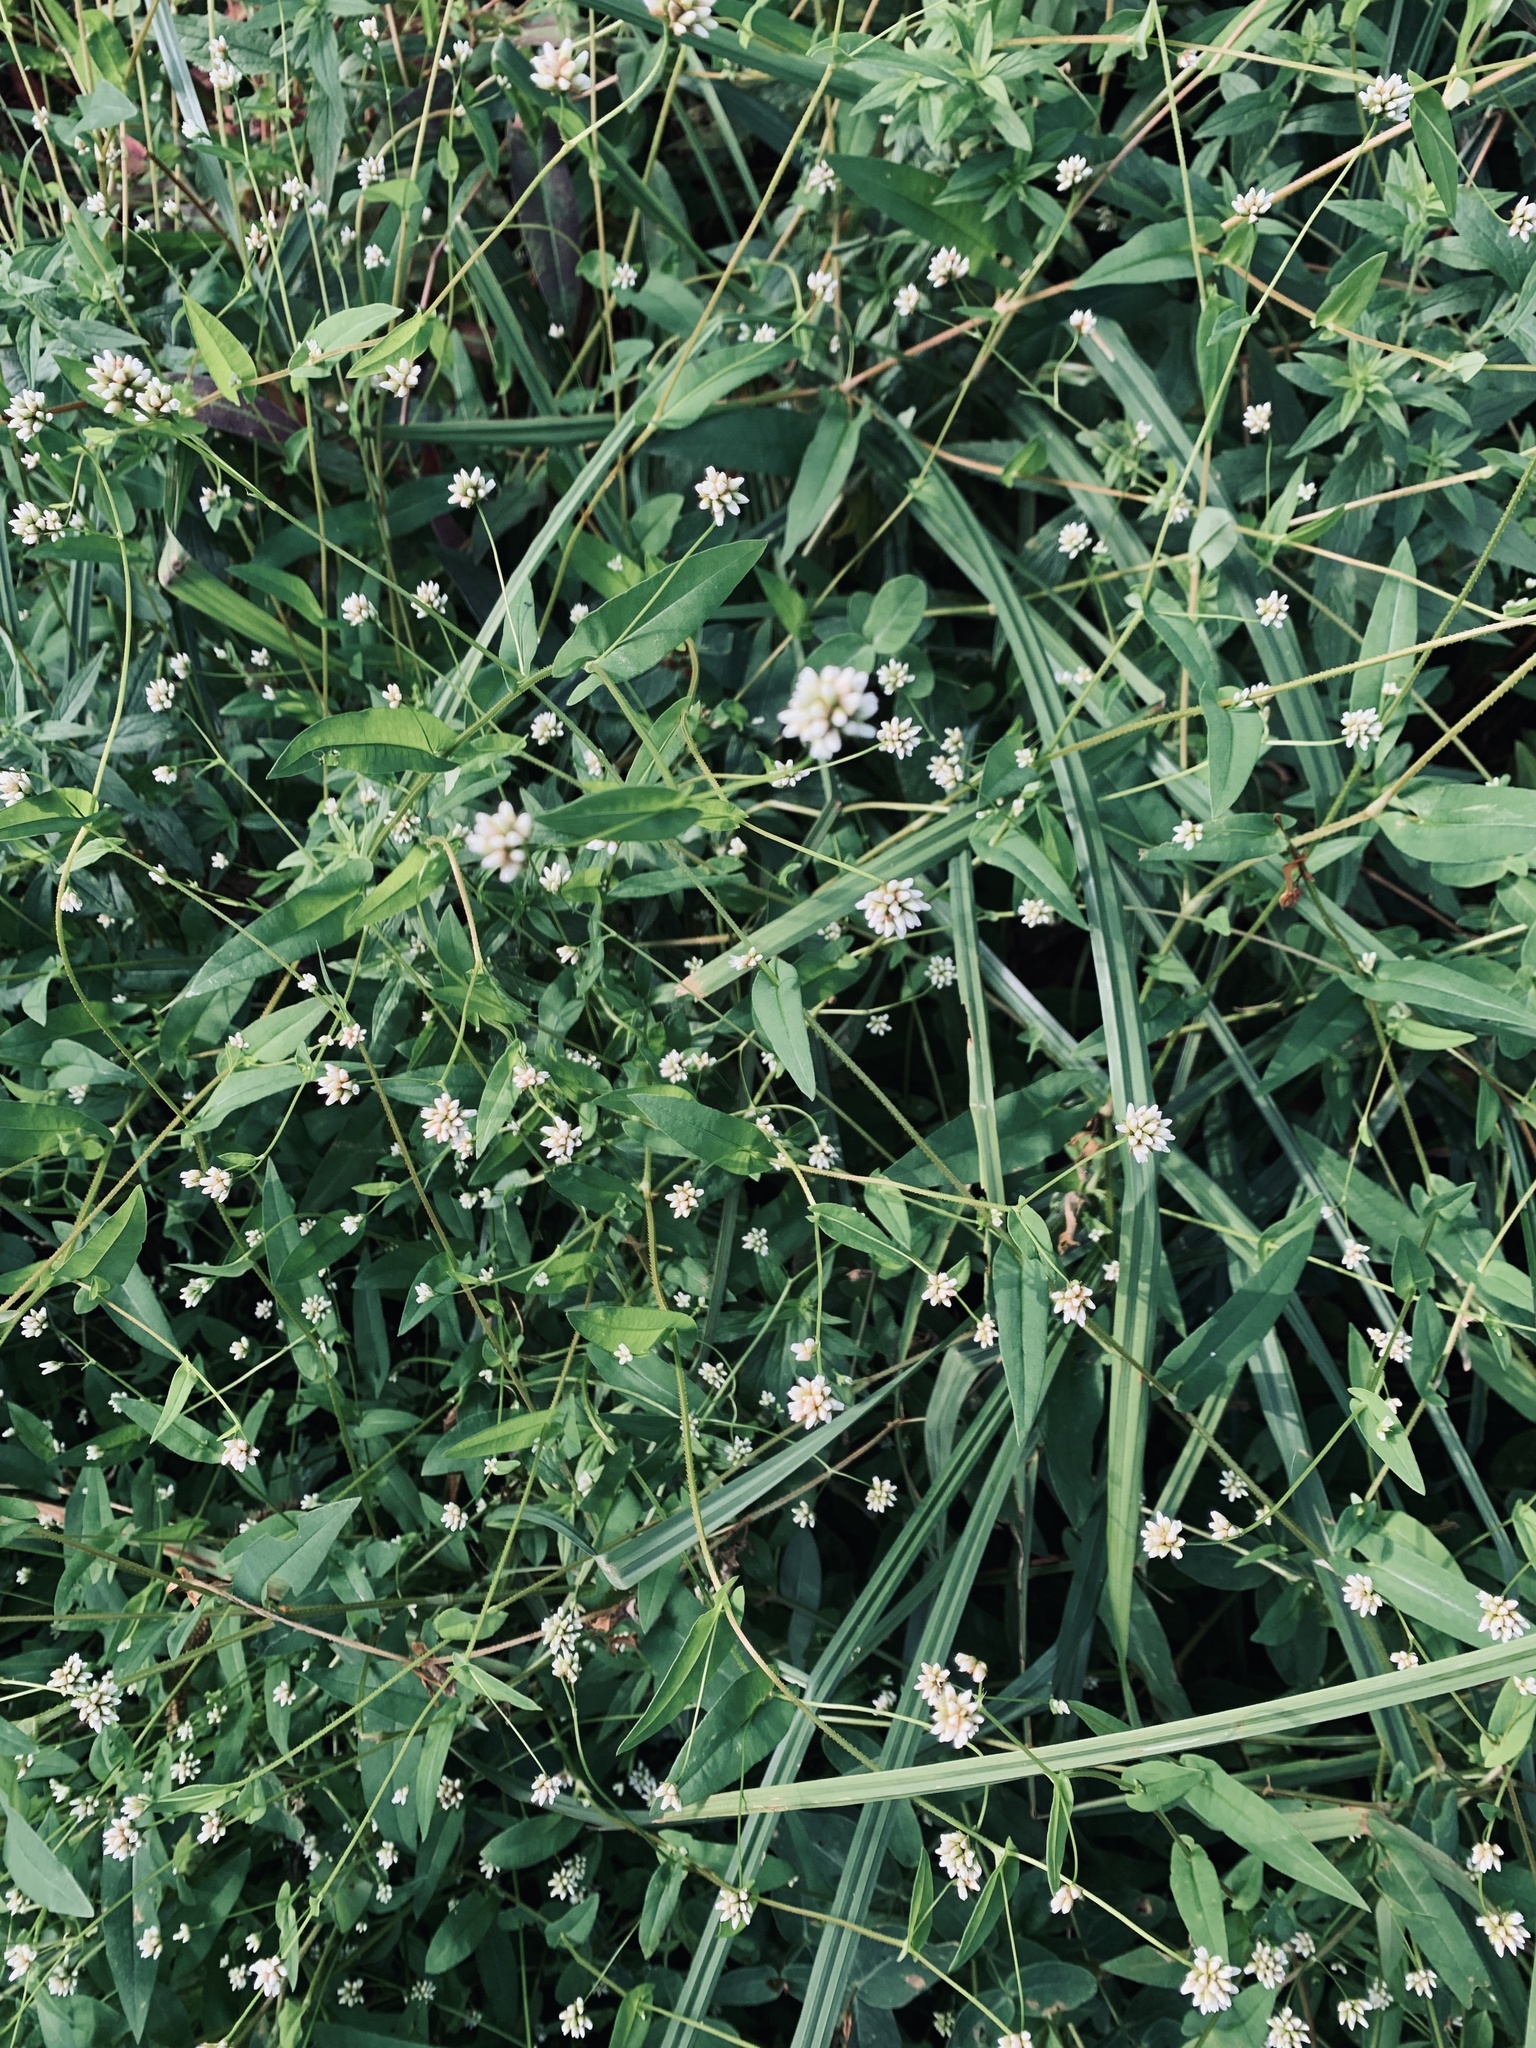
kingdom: Plantae
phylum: Tracheophyta
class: Magnoliopsida
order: Caryophyllales
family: Polygonaceae
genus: Persicaria
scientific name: Persicaria sagittata
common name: American tearthumb
